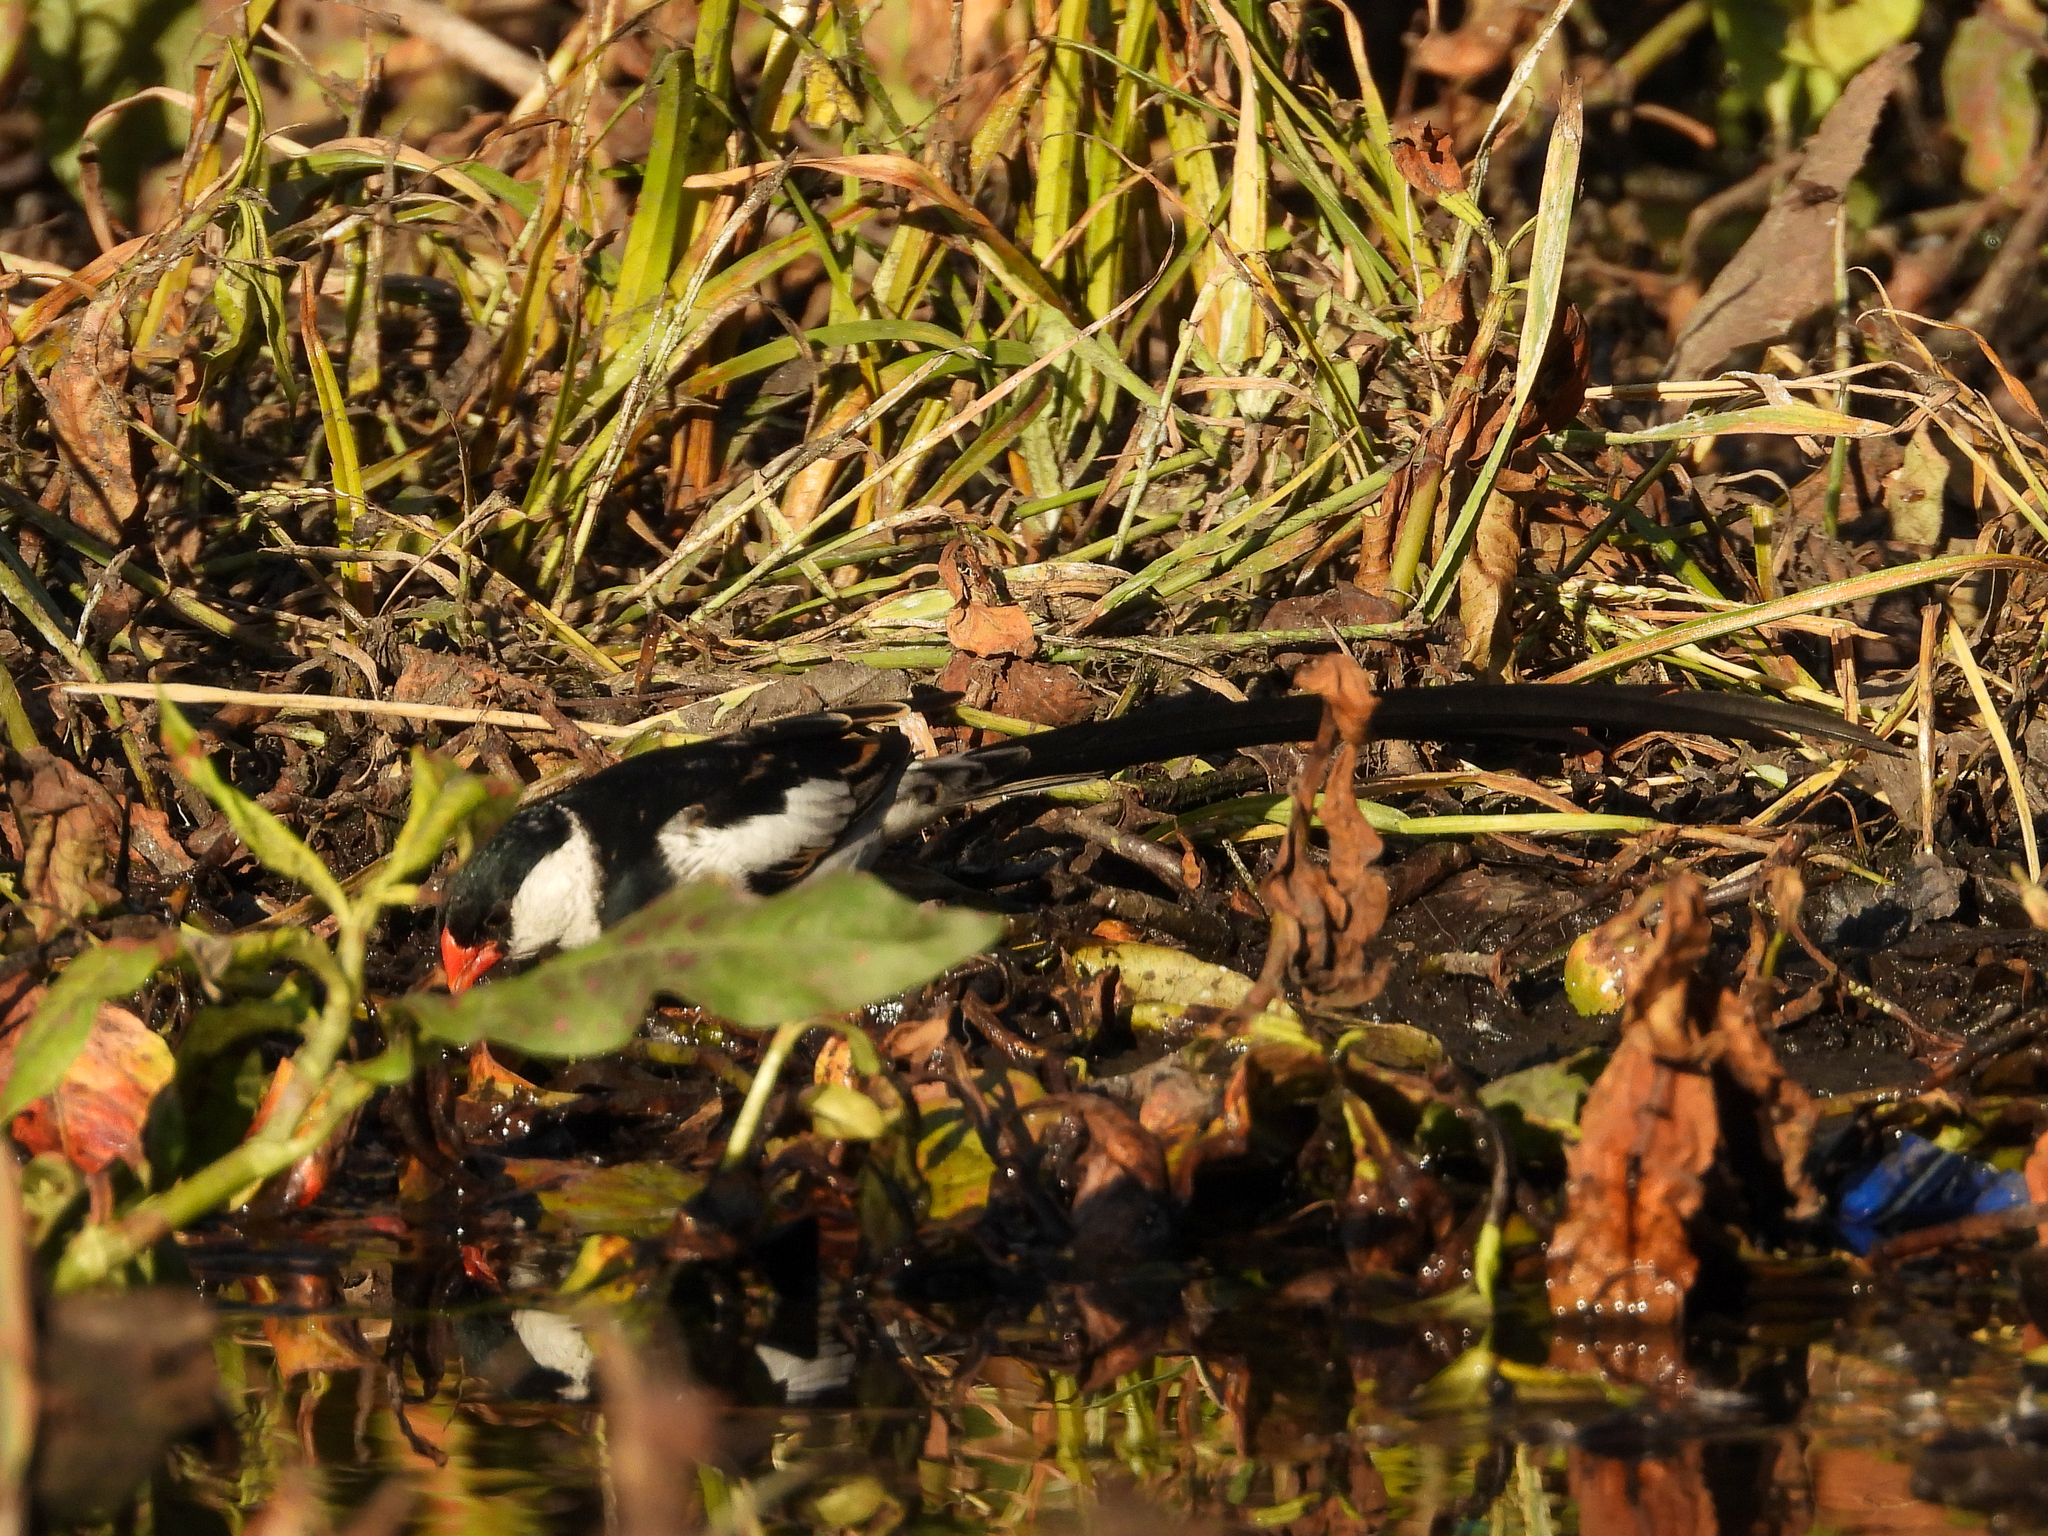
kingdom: Animalia
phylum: Chordata
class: Aves
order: Passeriformes
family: Viduidae
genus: Vidua
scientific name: Vidua macroura
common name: Pin-tailed whydah
